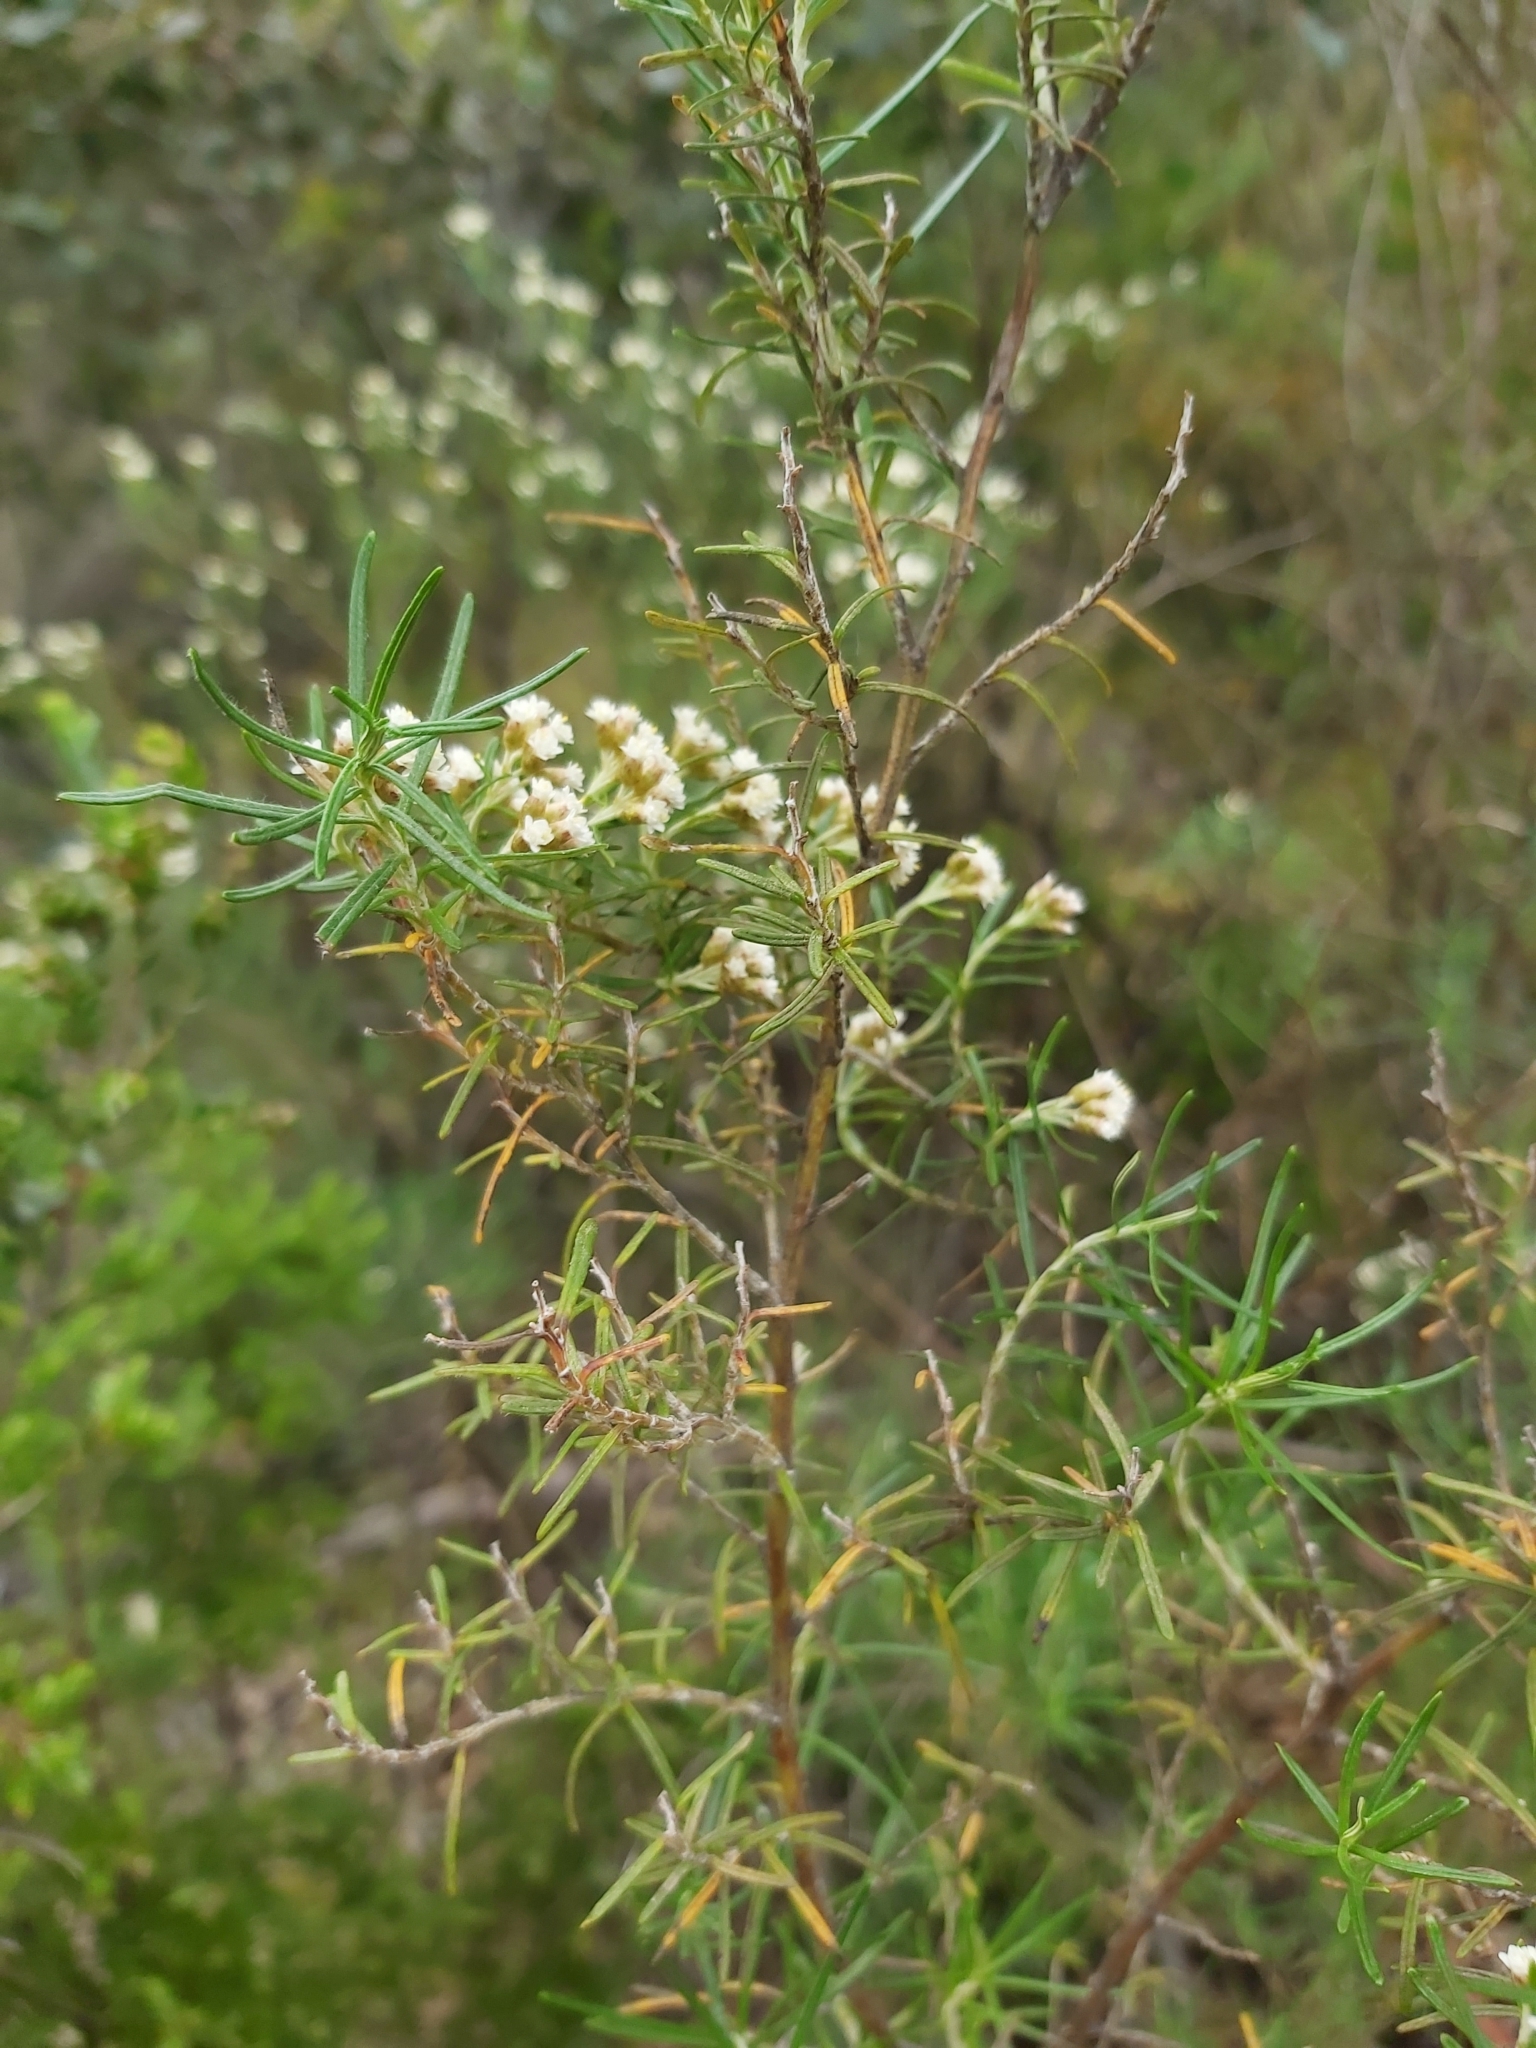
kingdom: Plantae
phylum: Tracheophyta
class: Magnoliopsida
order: Asterales
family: Asteraceae
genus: Ozothamnus
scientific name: Ozothamnus ferrugineus
